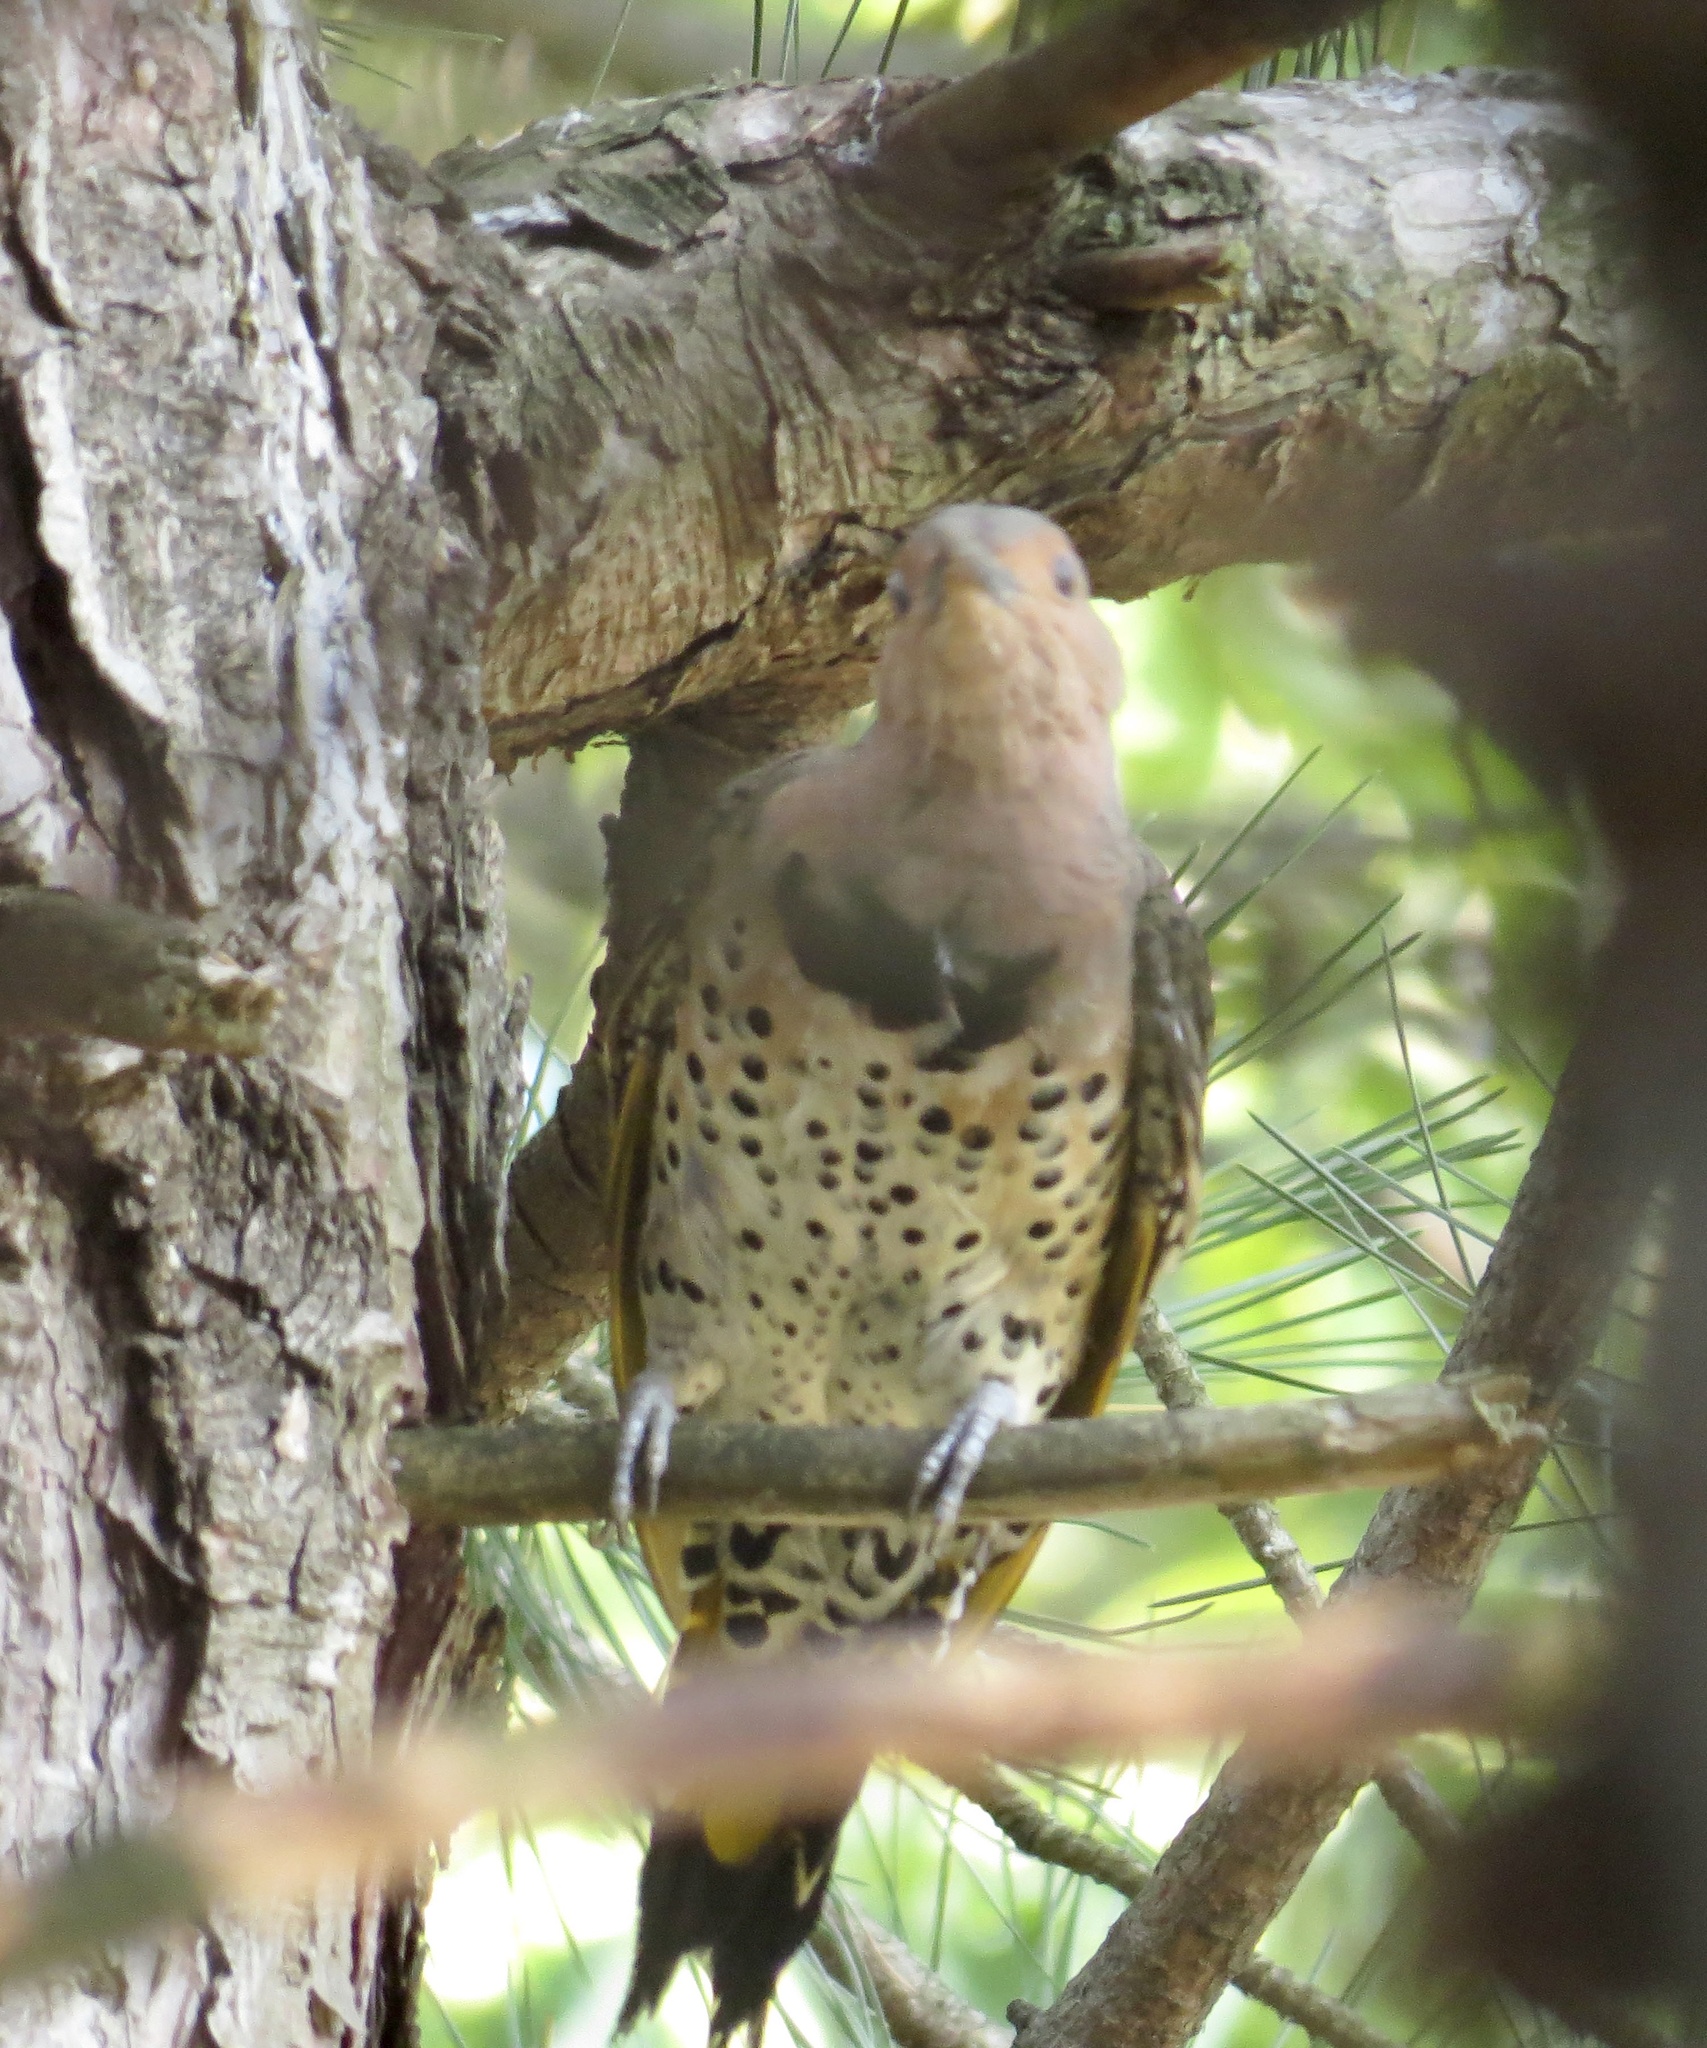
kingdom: Animalia
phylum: Chordata
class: Aves
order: Piciformes
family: Picidae
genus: Colaptes
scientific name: Colaptes auratus
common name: Northern flicker
